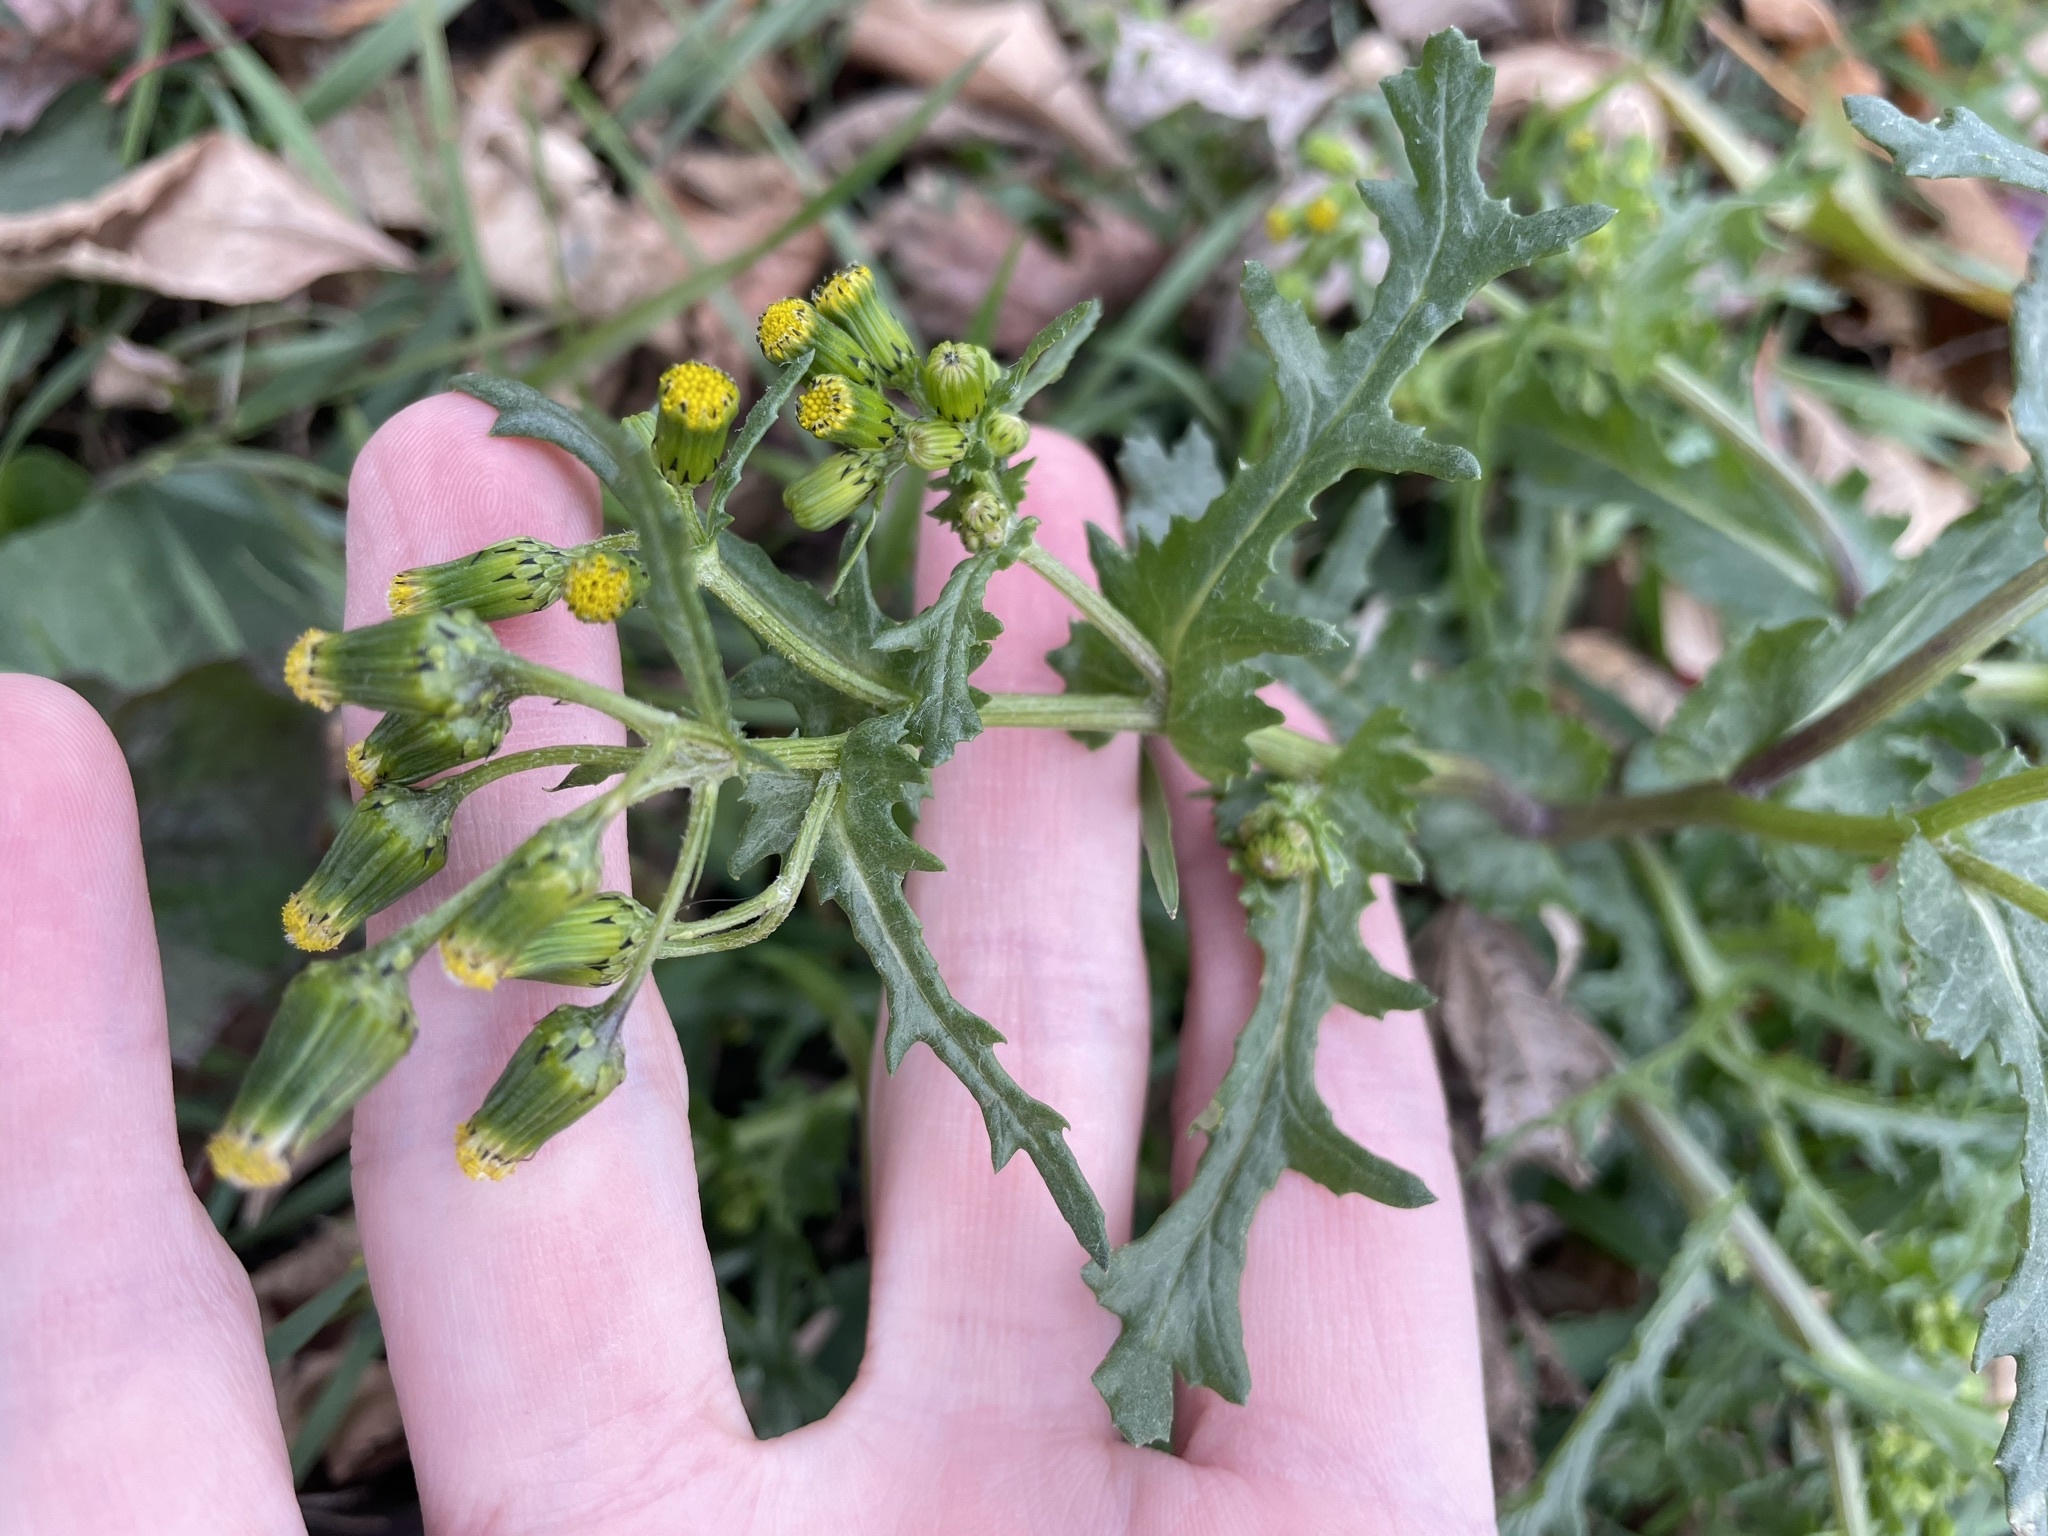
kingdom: Plantae
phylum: Tracheophyta
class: Magnoliopsida
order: Asterales
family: Asteraceae
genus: Senecio
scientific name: Senecio vulgaris
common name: Old-man-in-the-spring
